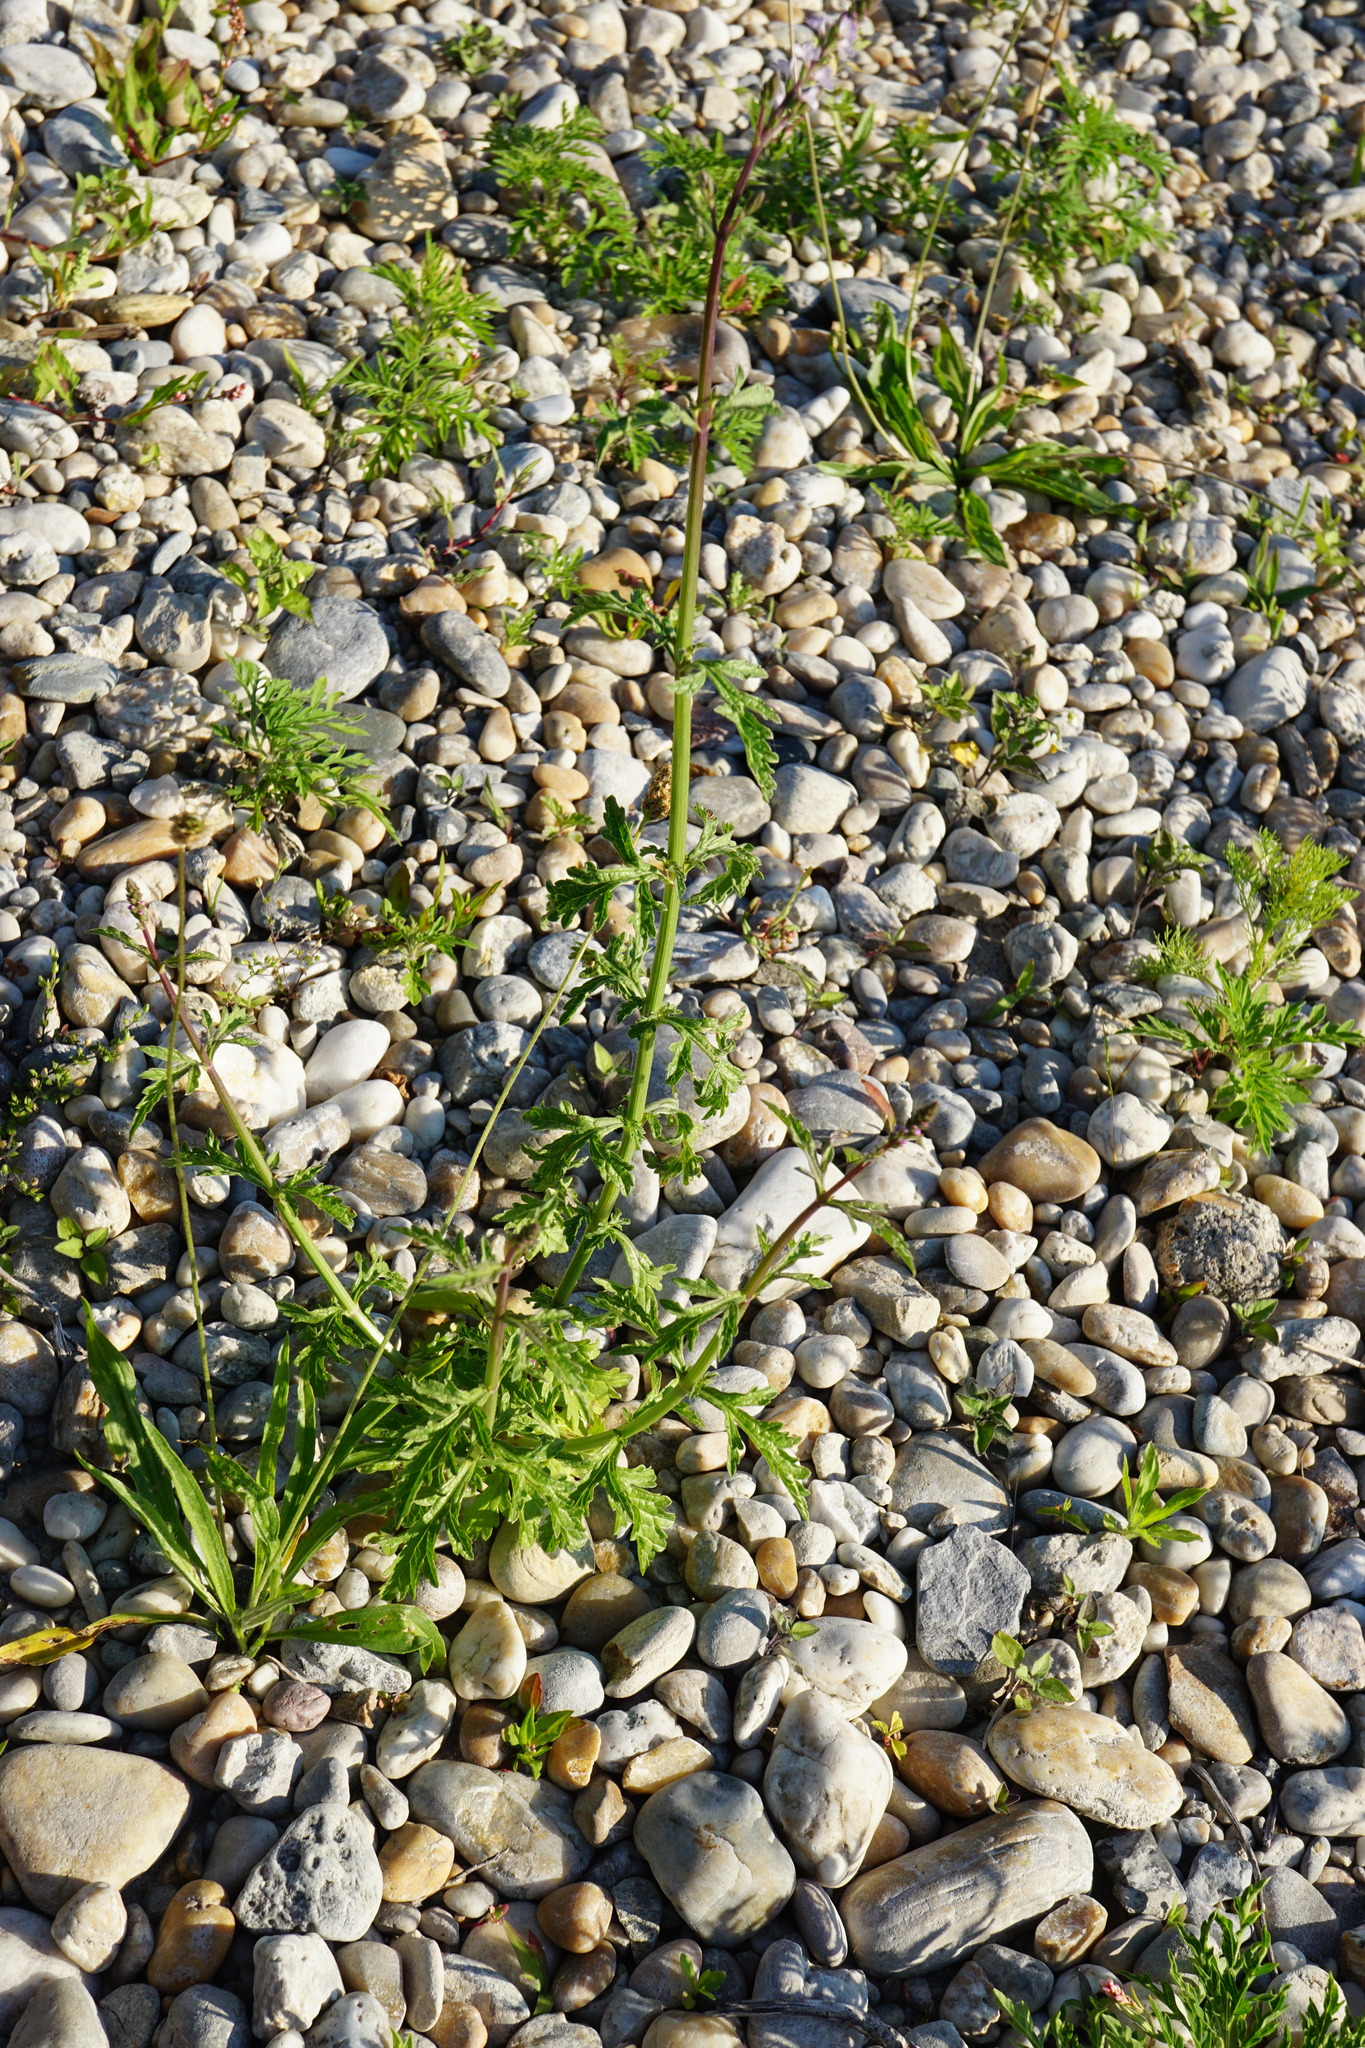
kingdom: Plantae
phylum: Tracheophyta
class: Magnoliopsida
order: Lamiales
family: Verbenaceae
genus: Verbena
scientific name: Verbena officinalis
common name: Vervain
